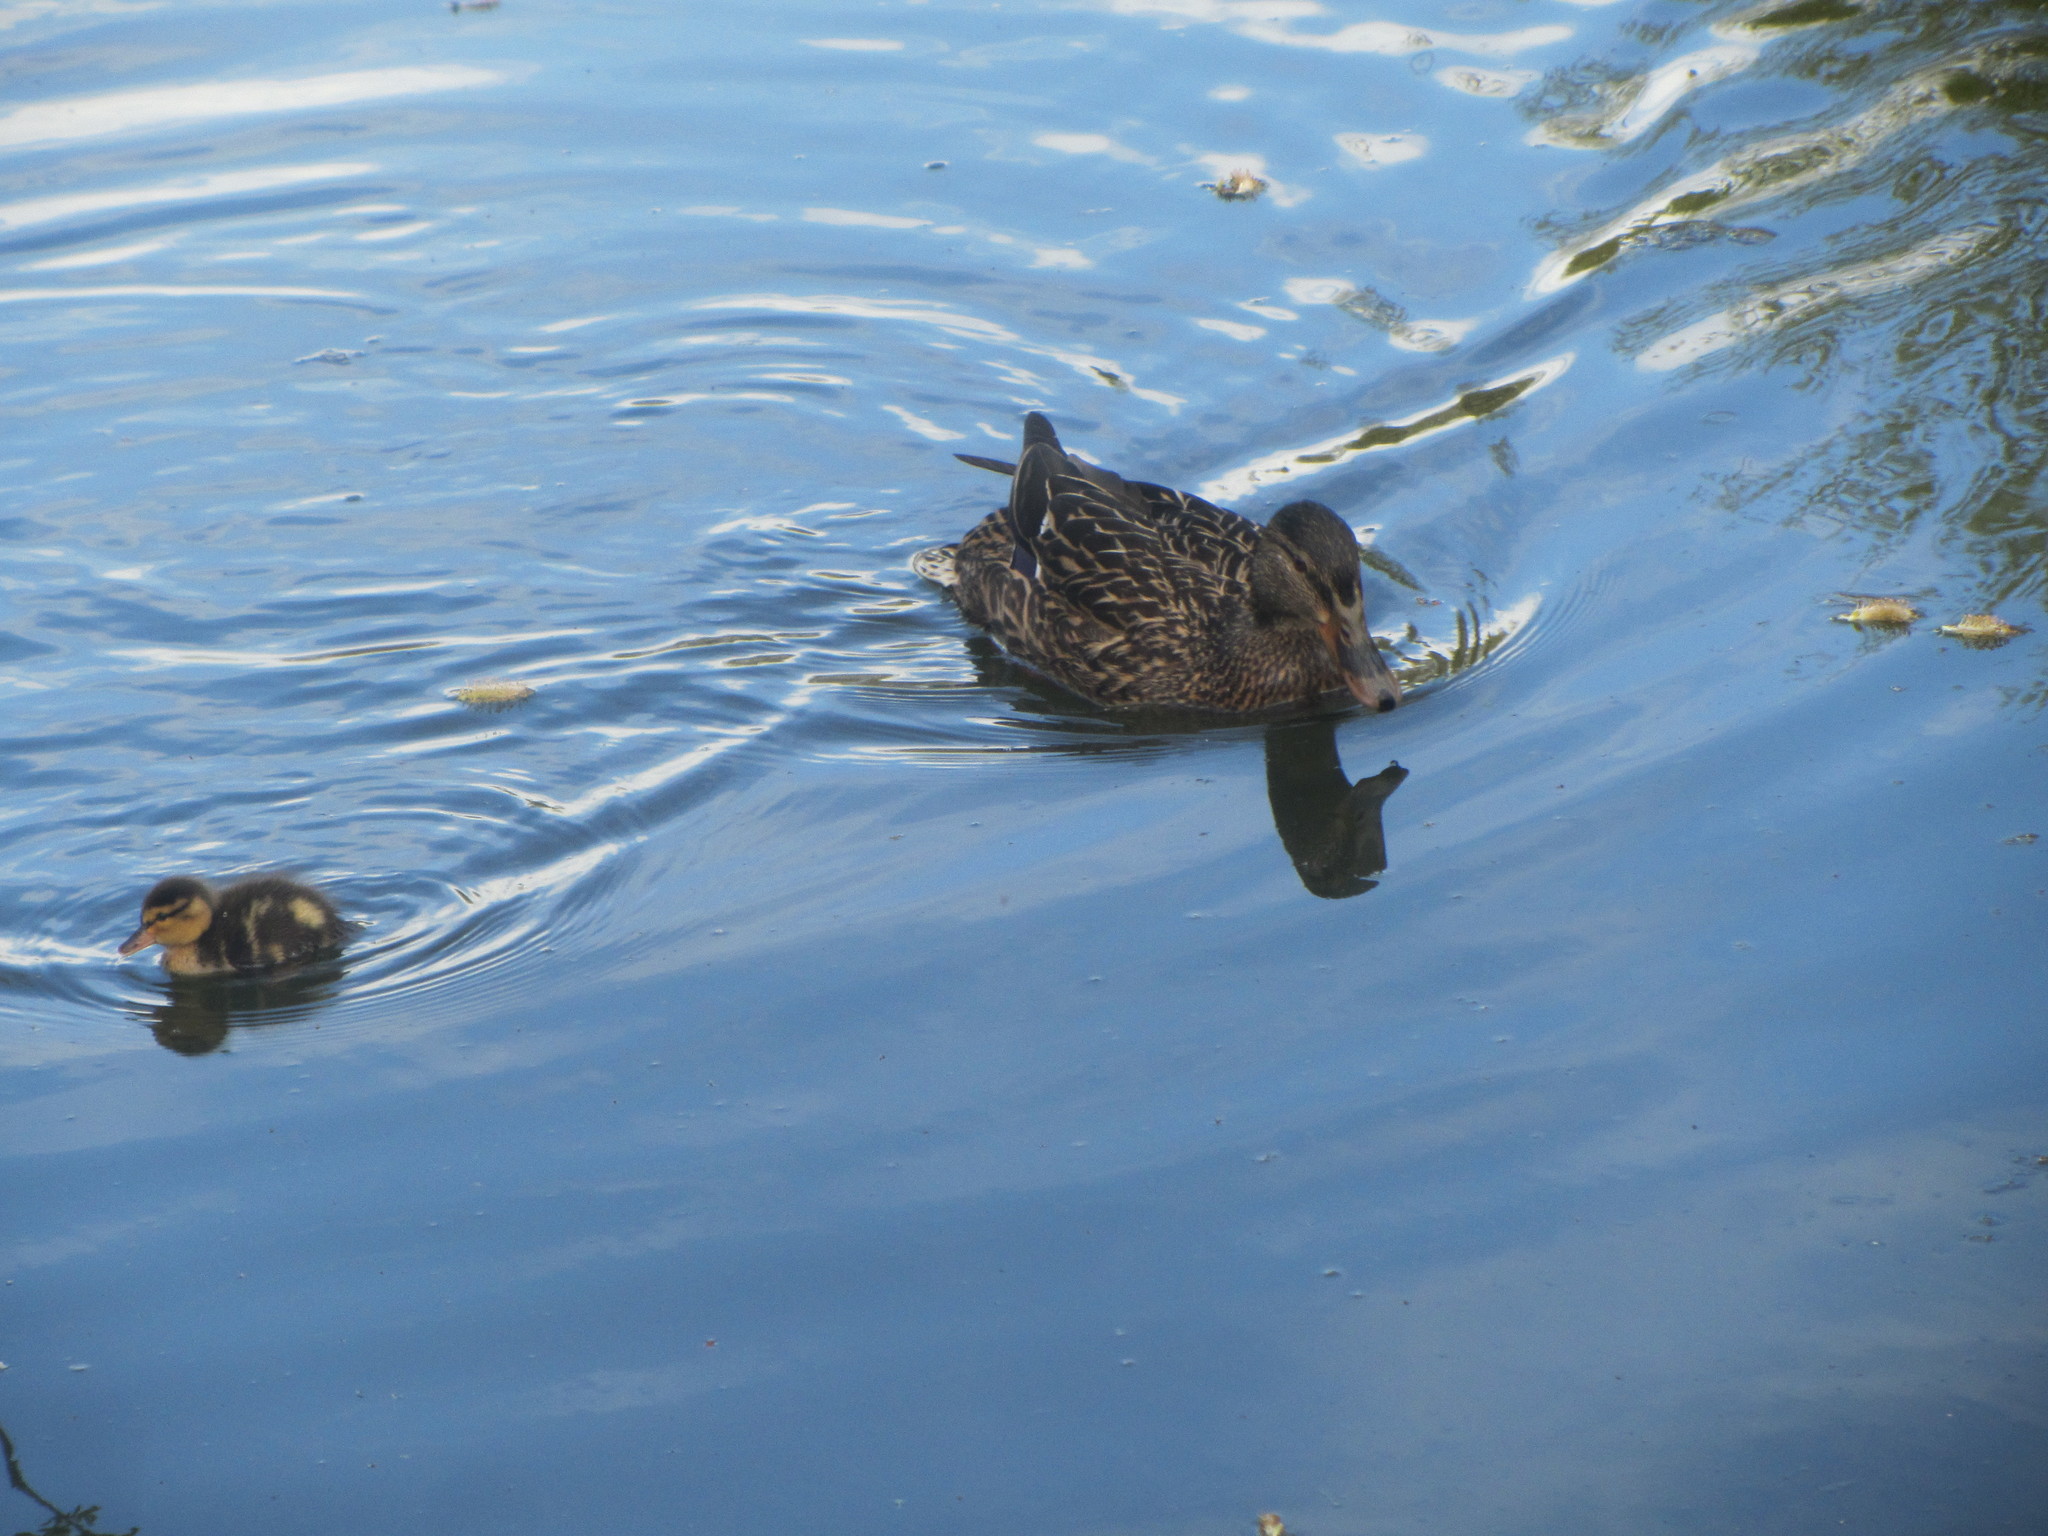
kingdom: Animalia
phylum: Chordata
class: Aves
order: Anseriformes
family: Anatidae
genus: Anas
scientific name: Anas platyrhynchos
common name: Mallard
